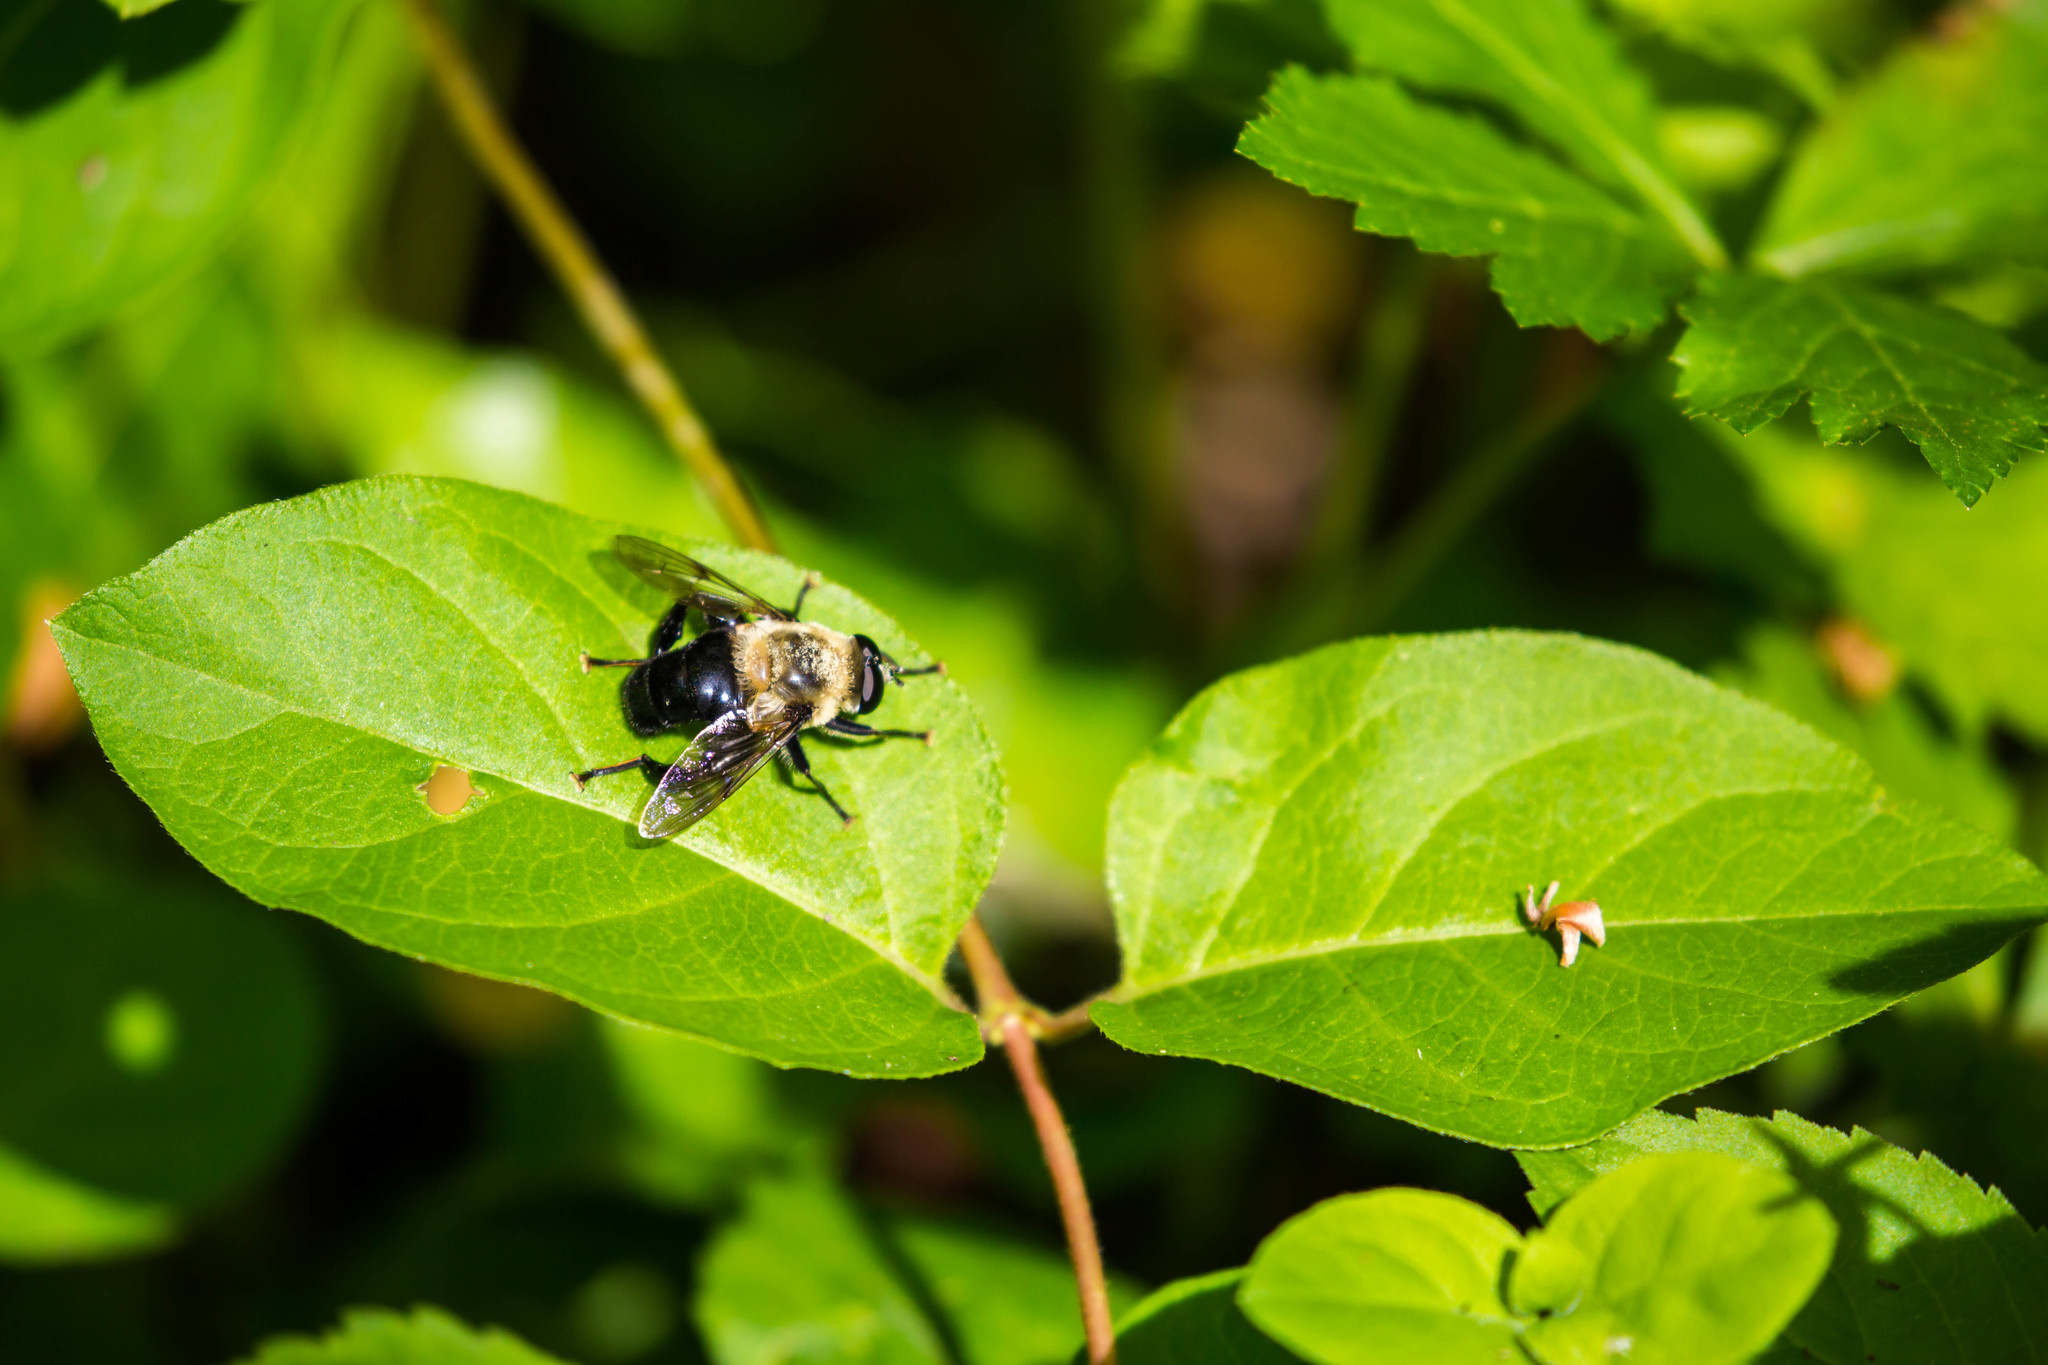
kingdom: Animalia
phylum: Arthropoda
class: Insecta
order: Diptera
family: Syrphidae
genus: Imatisma
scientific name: Imatisma bautias
